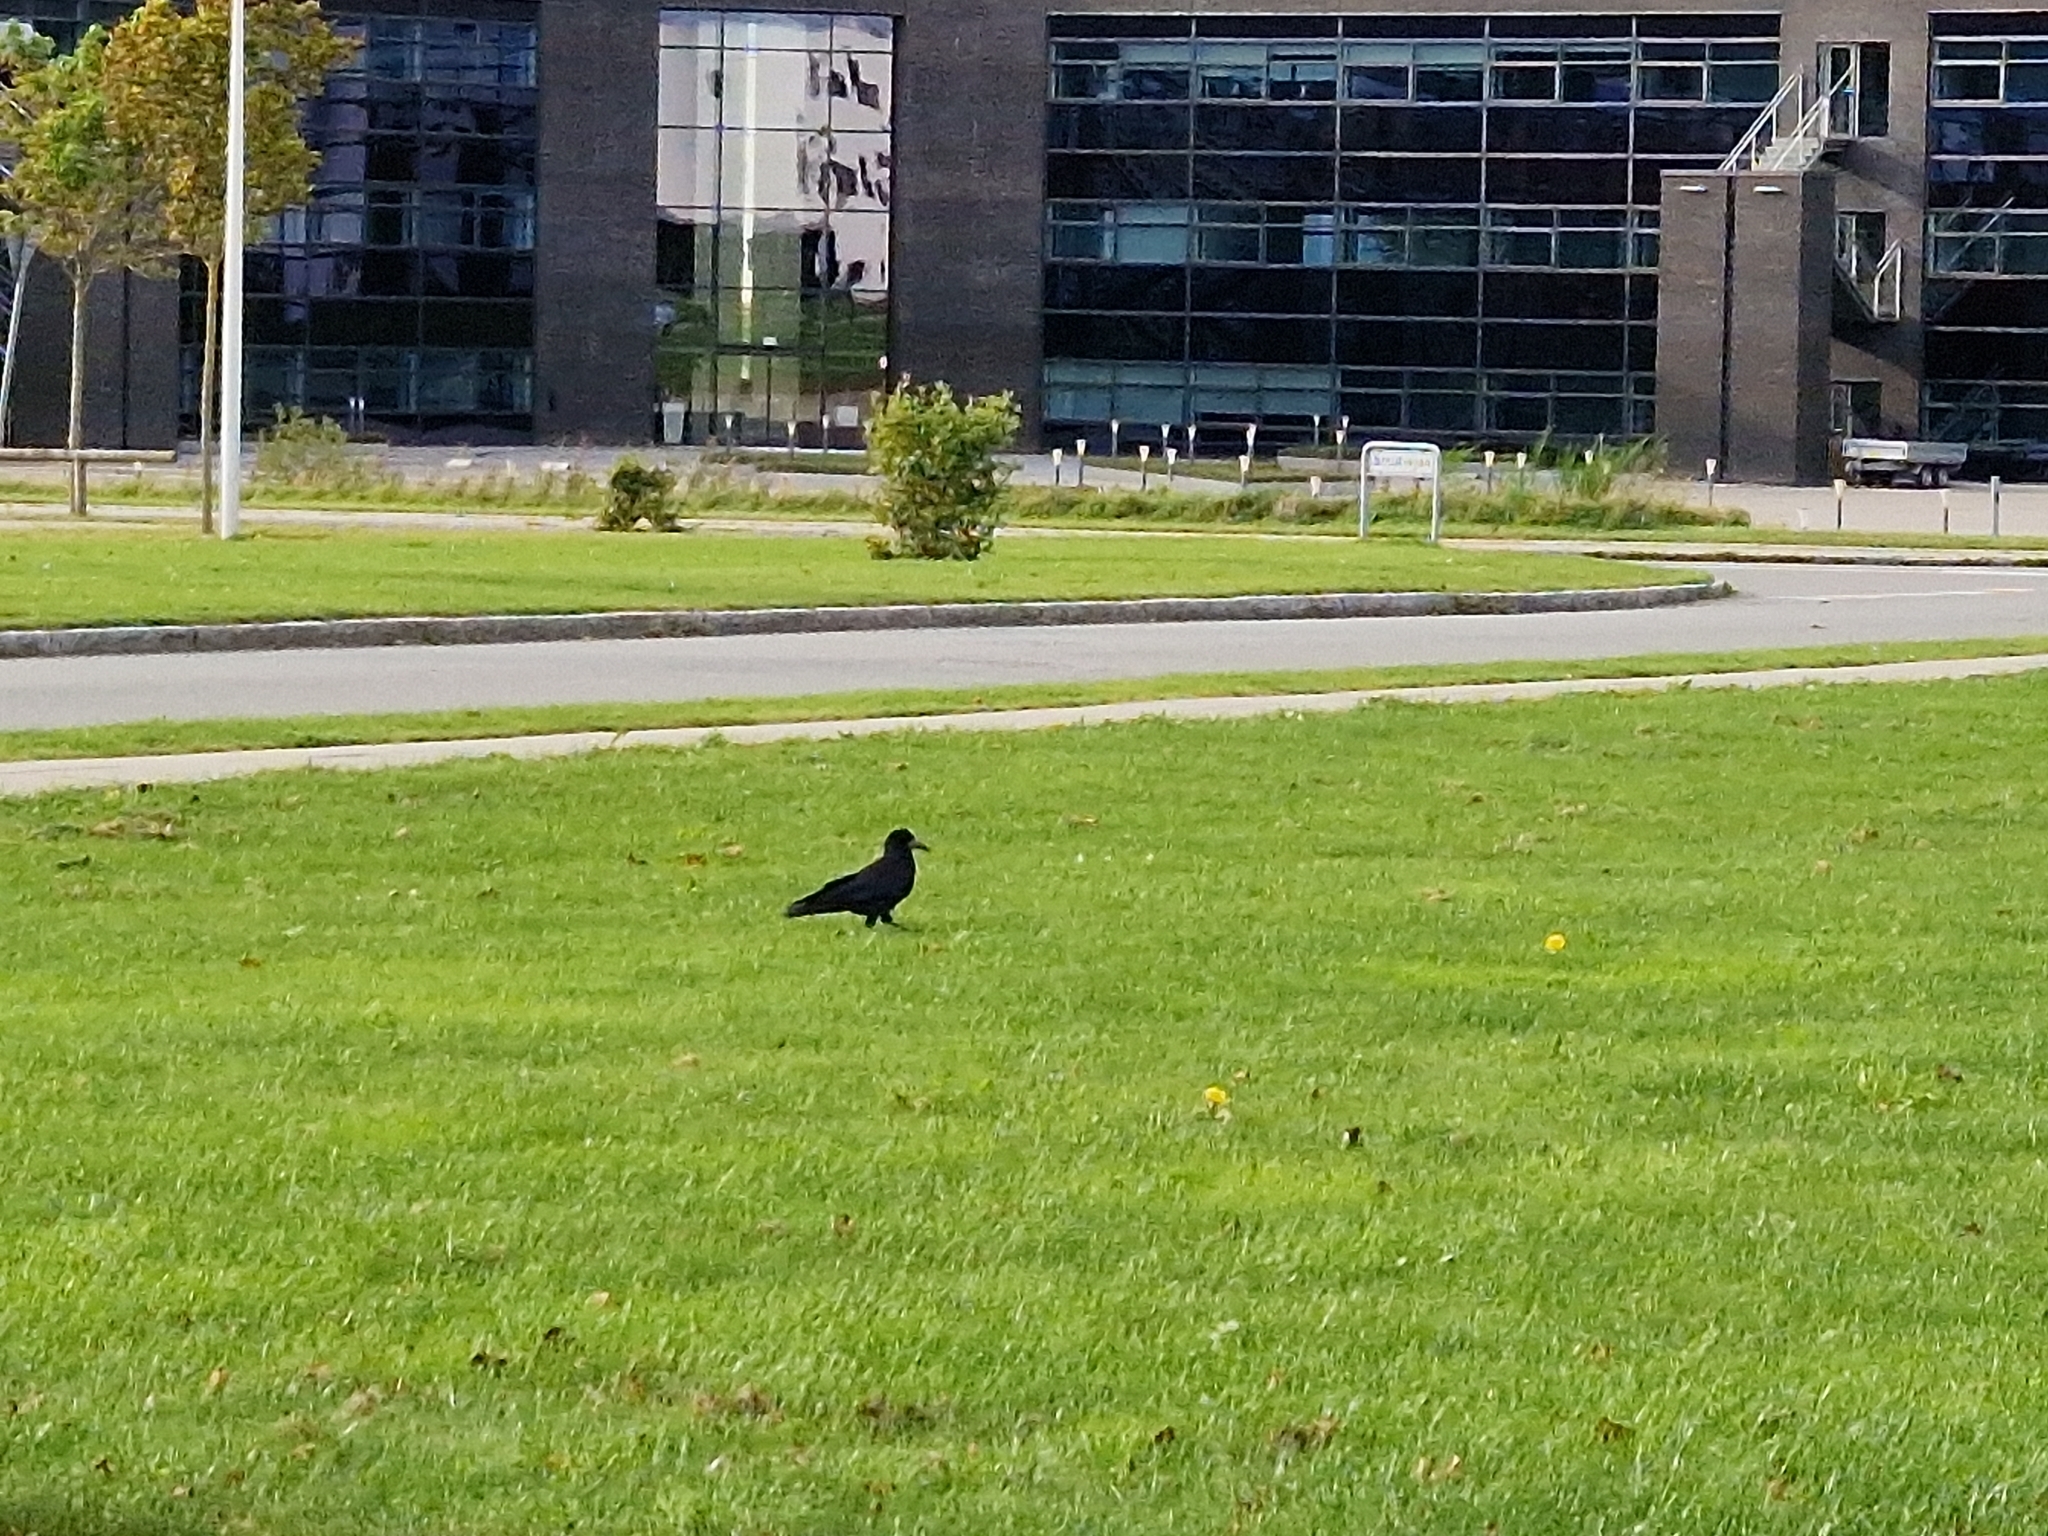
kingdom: Animalia
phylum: Chordata
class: Aves
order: Passeriformes
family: Corvidae
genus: Corvus
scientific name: Corvus frugilegus
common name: Rook
